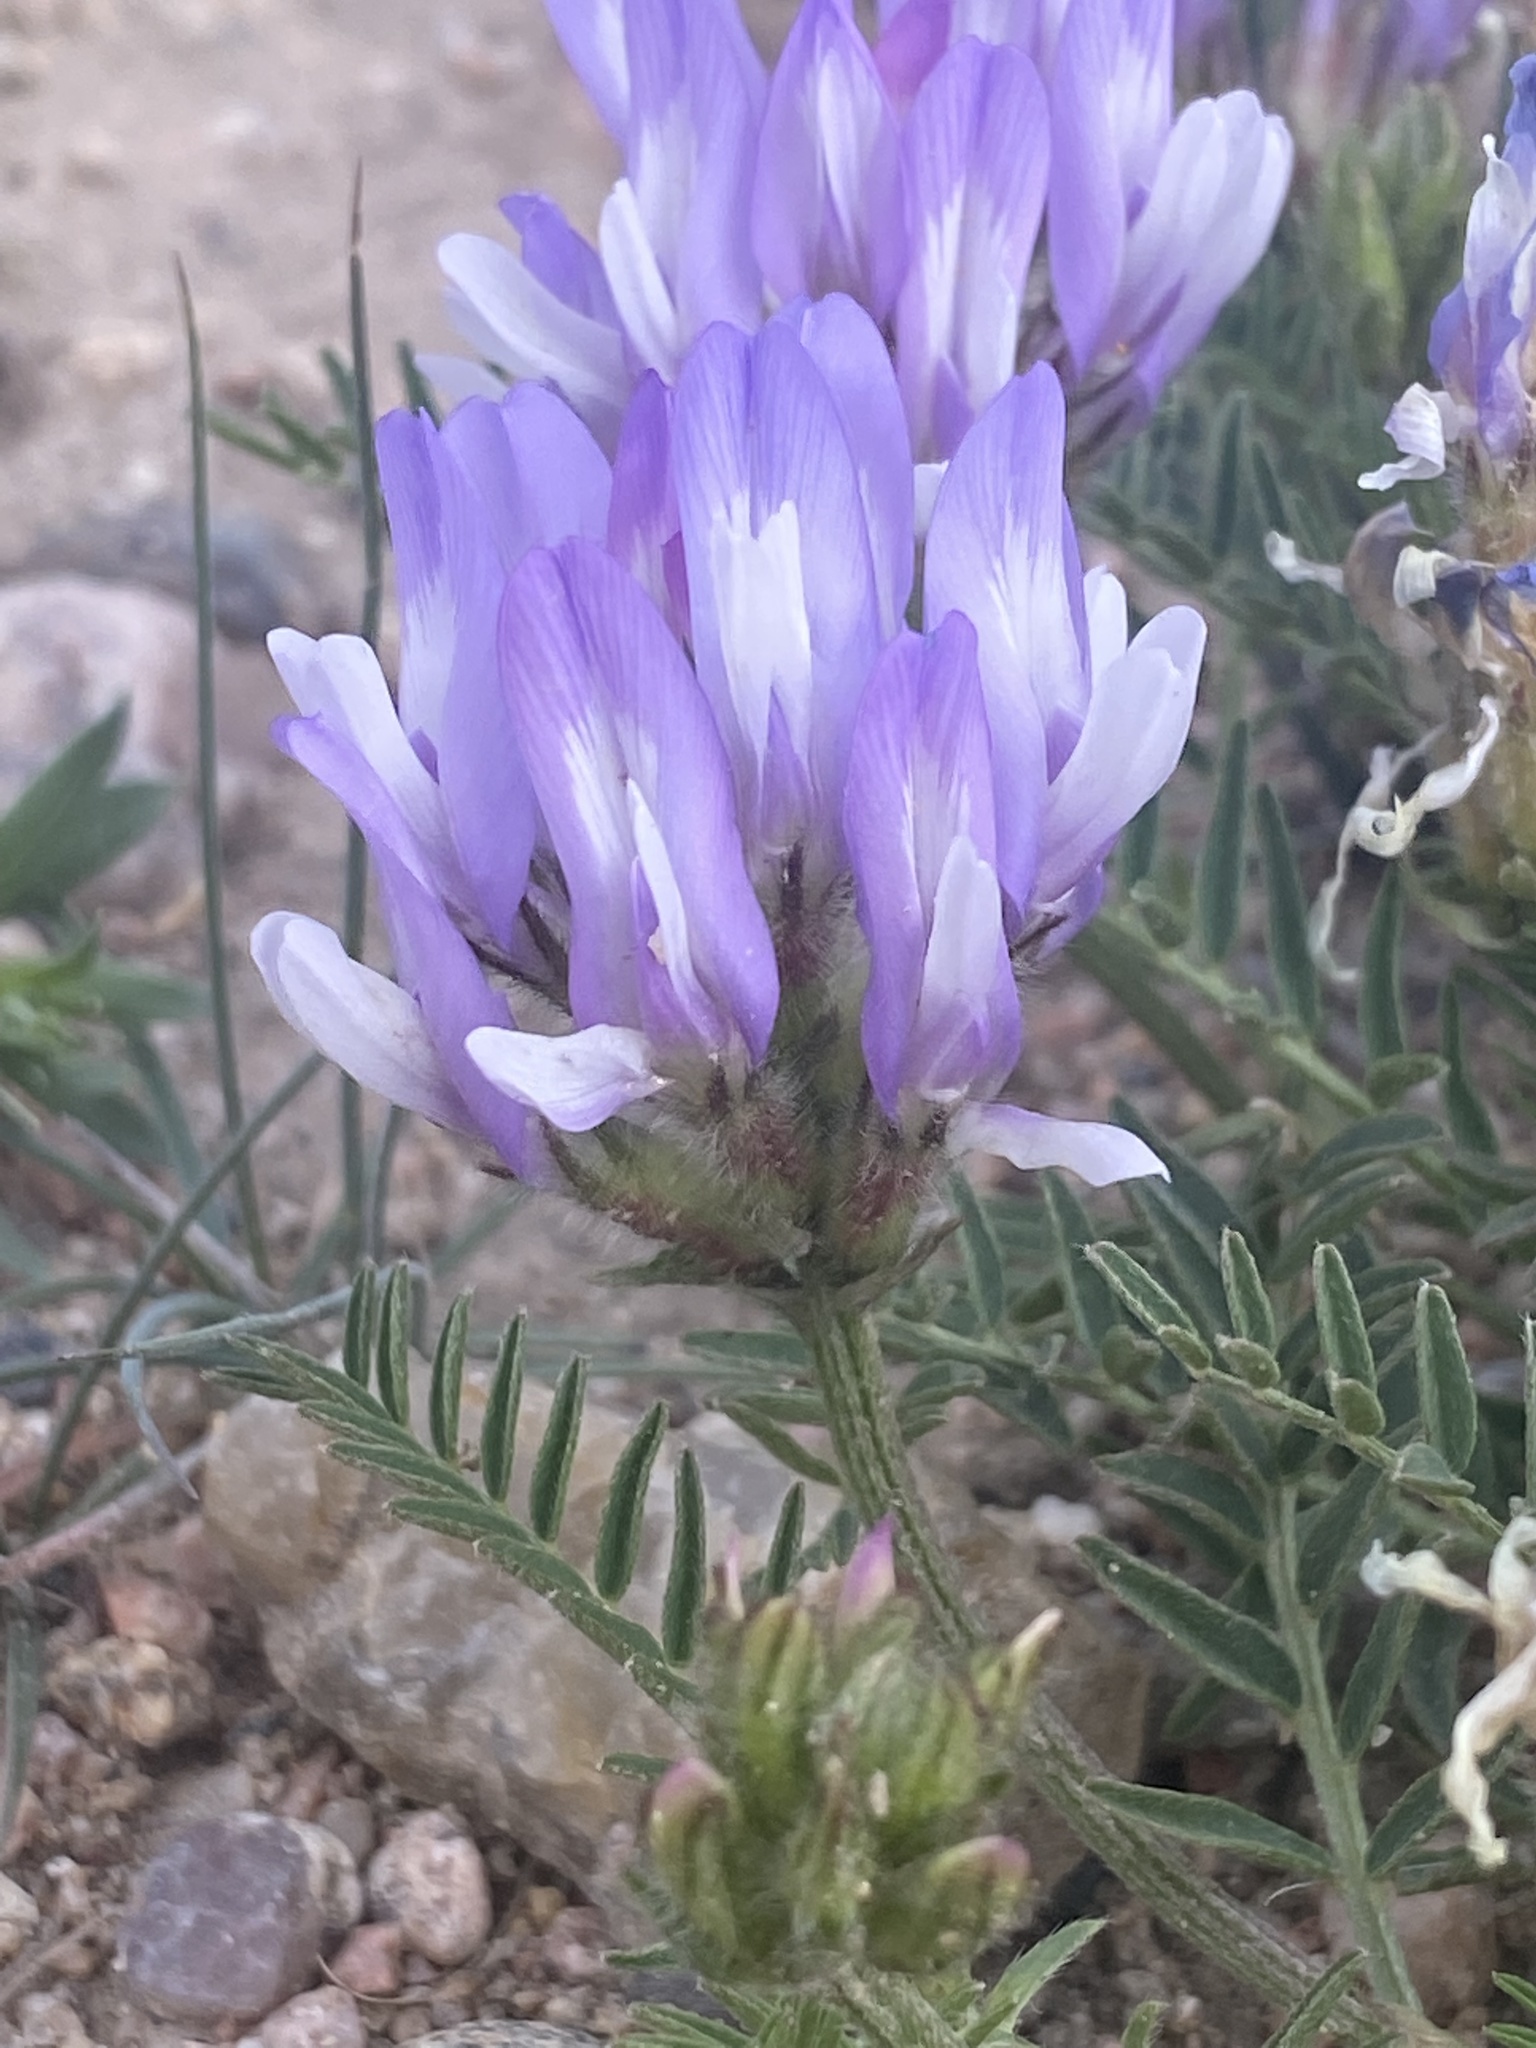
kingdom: Plantae
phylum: Tracheophyta
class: Magnoliopsida
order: Fabales
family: Fabaceae
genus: Astragalus
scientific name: Astragalus agrestis
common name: Field milk-vetch
